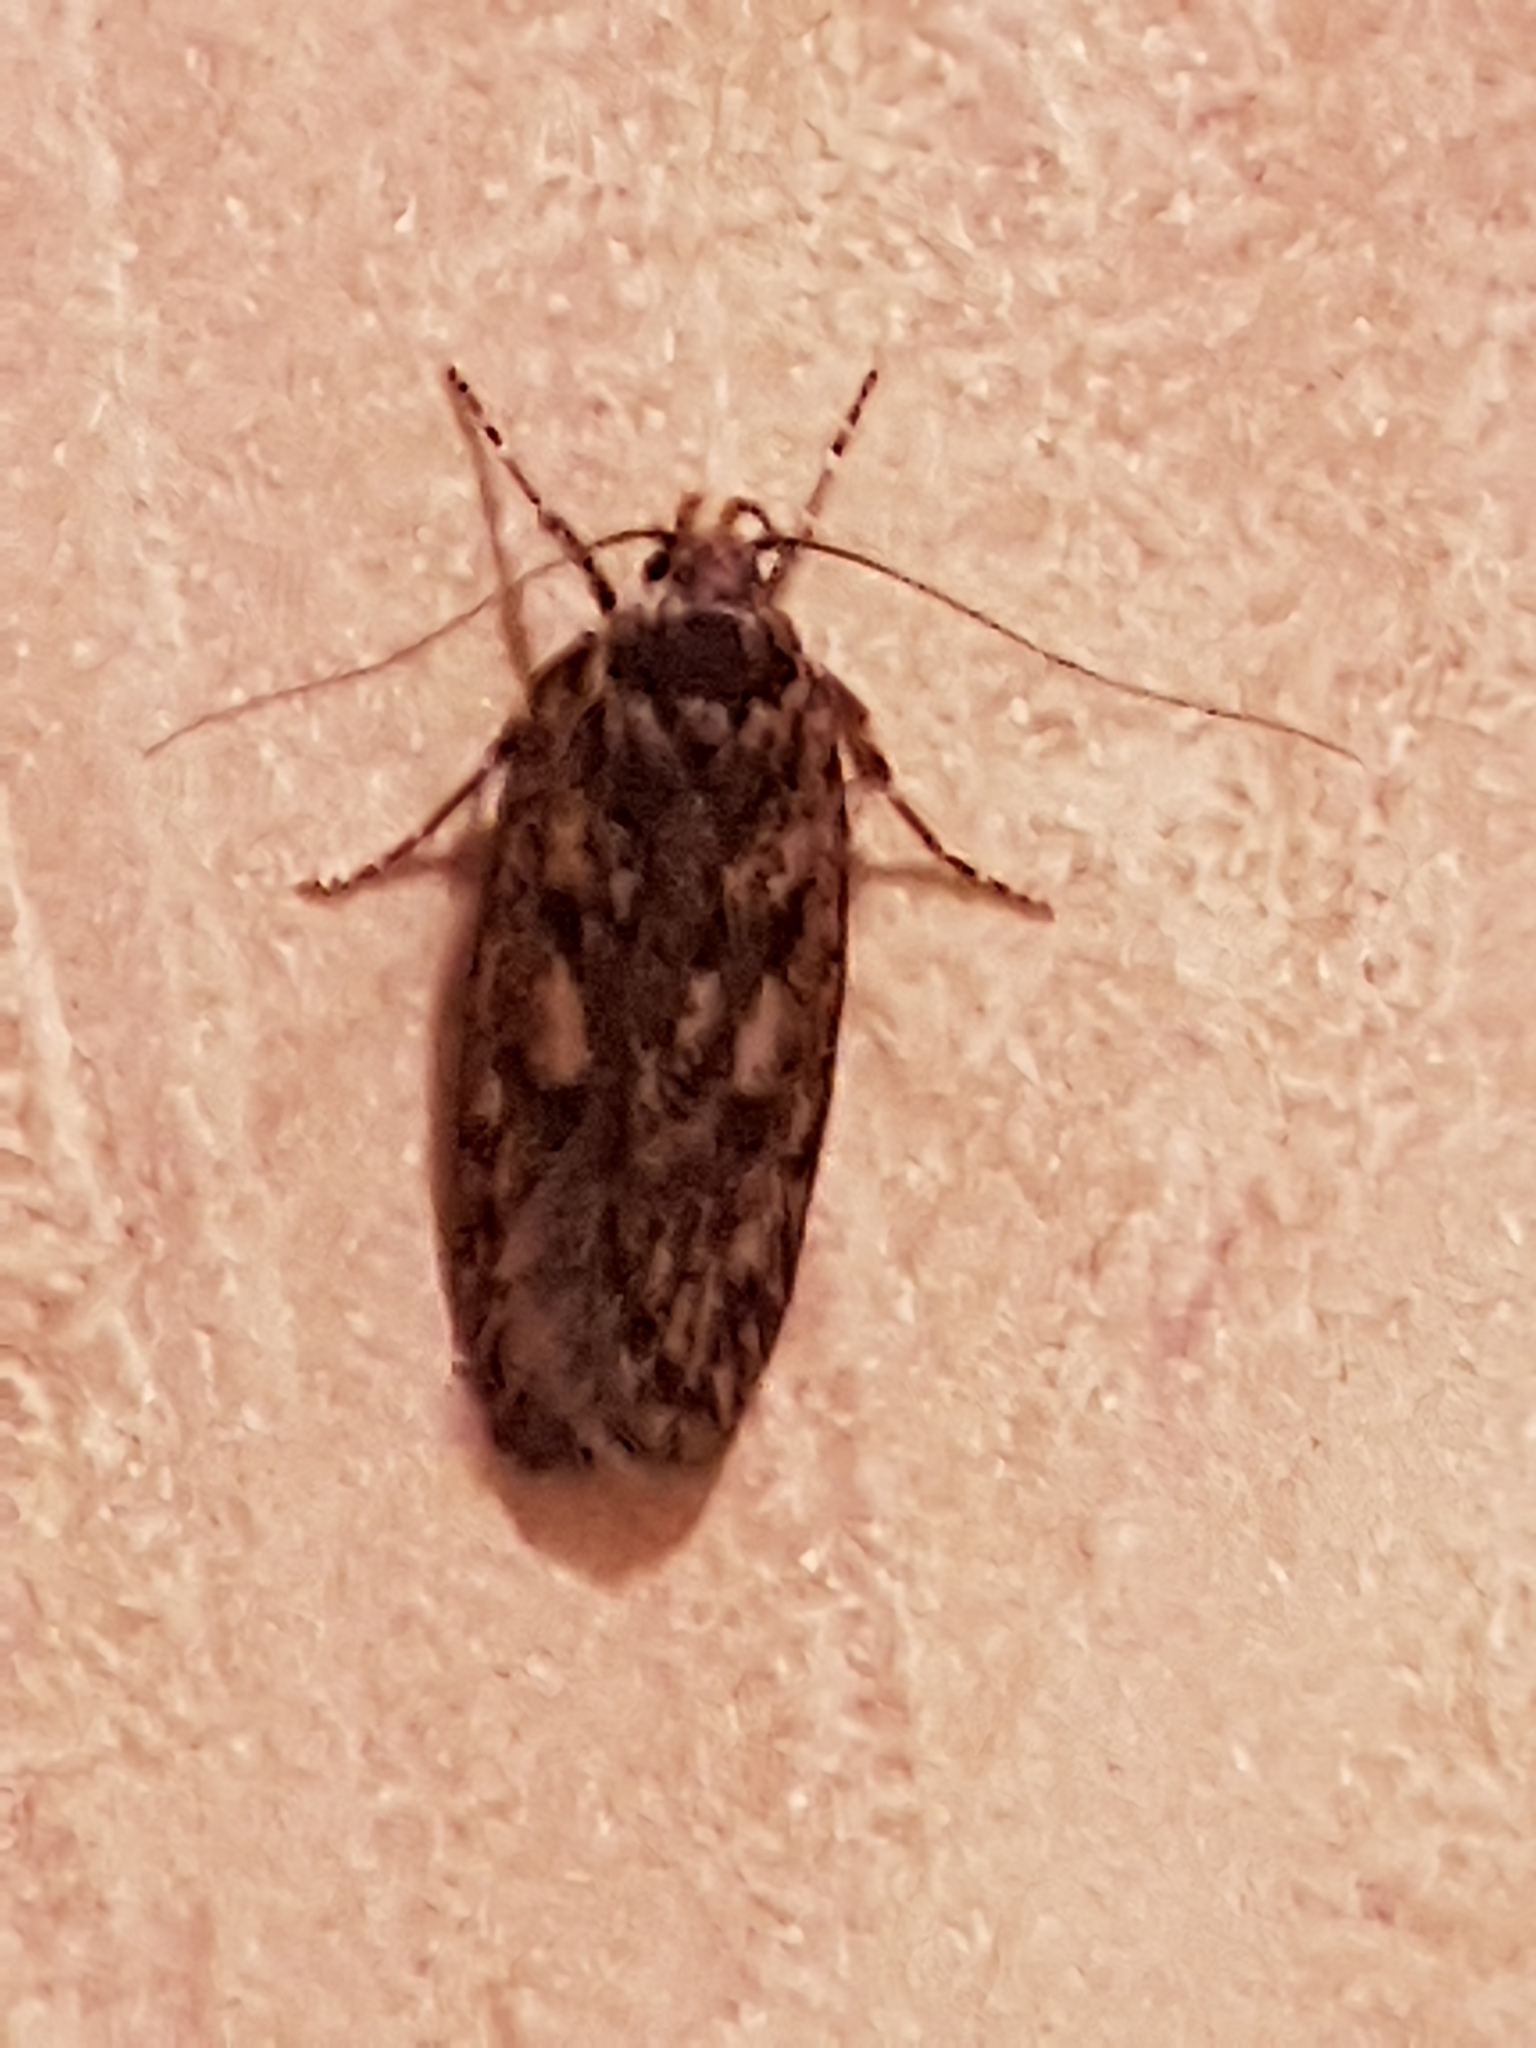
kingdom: Animalia
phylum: Arthropoda
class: Insecta
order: Lepidoptera
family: Oecophoridae
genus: Hofmannophila
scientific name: Hofmannophila pseudospretella
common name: Brown house moth
